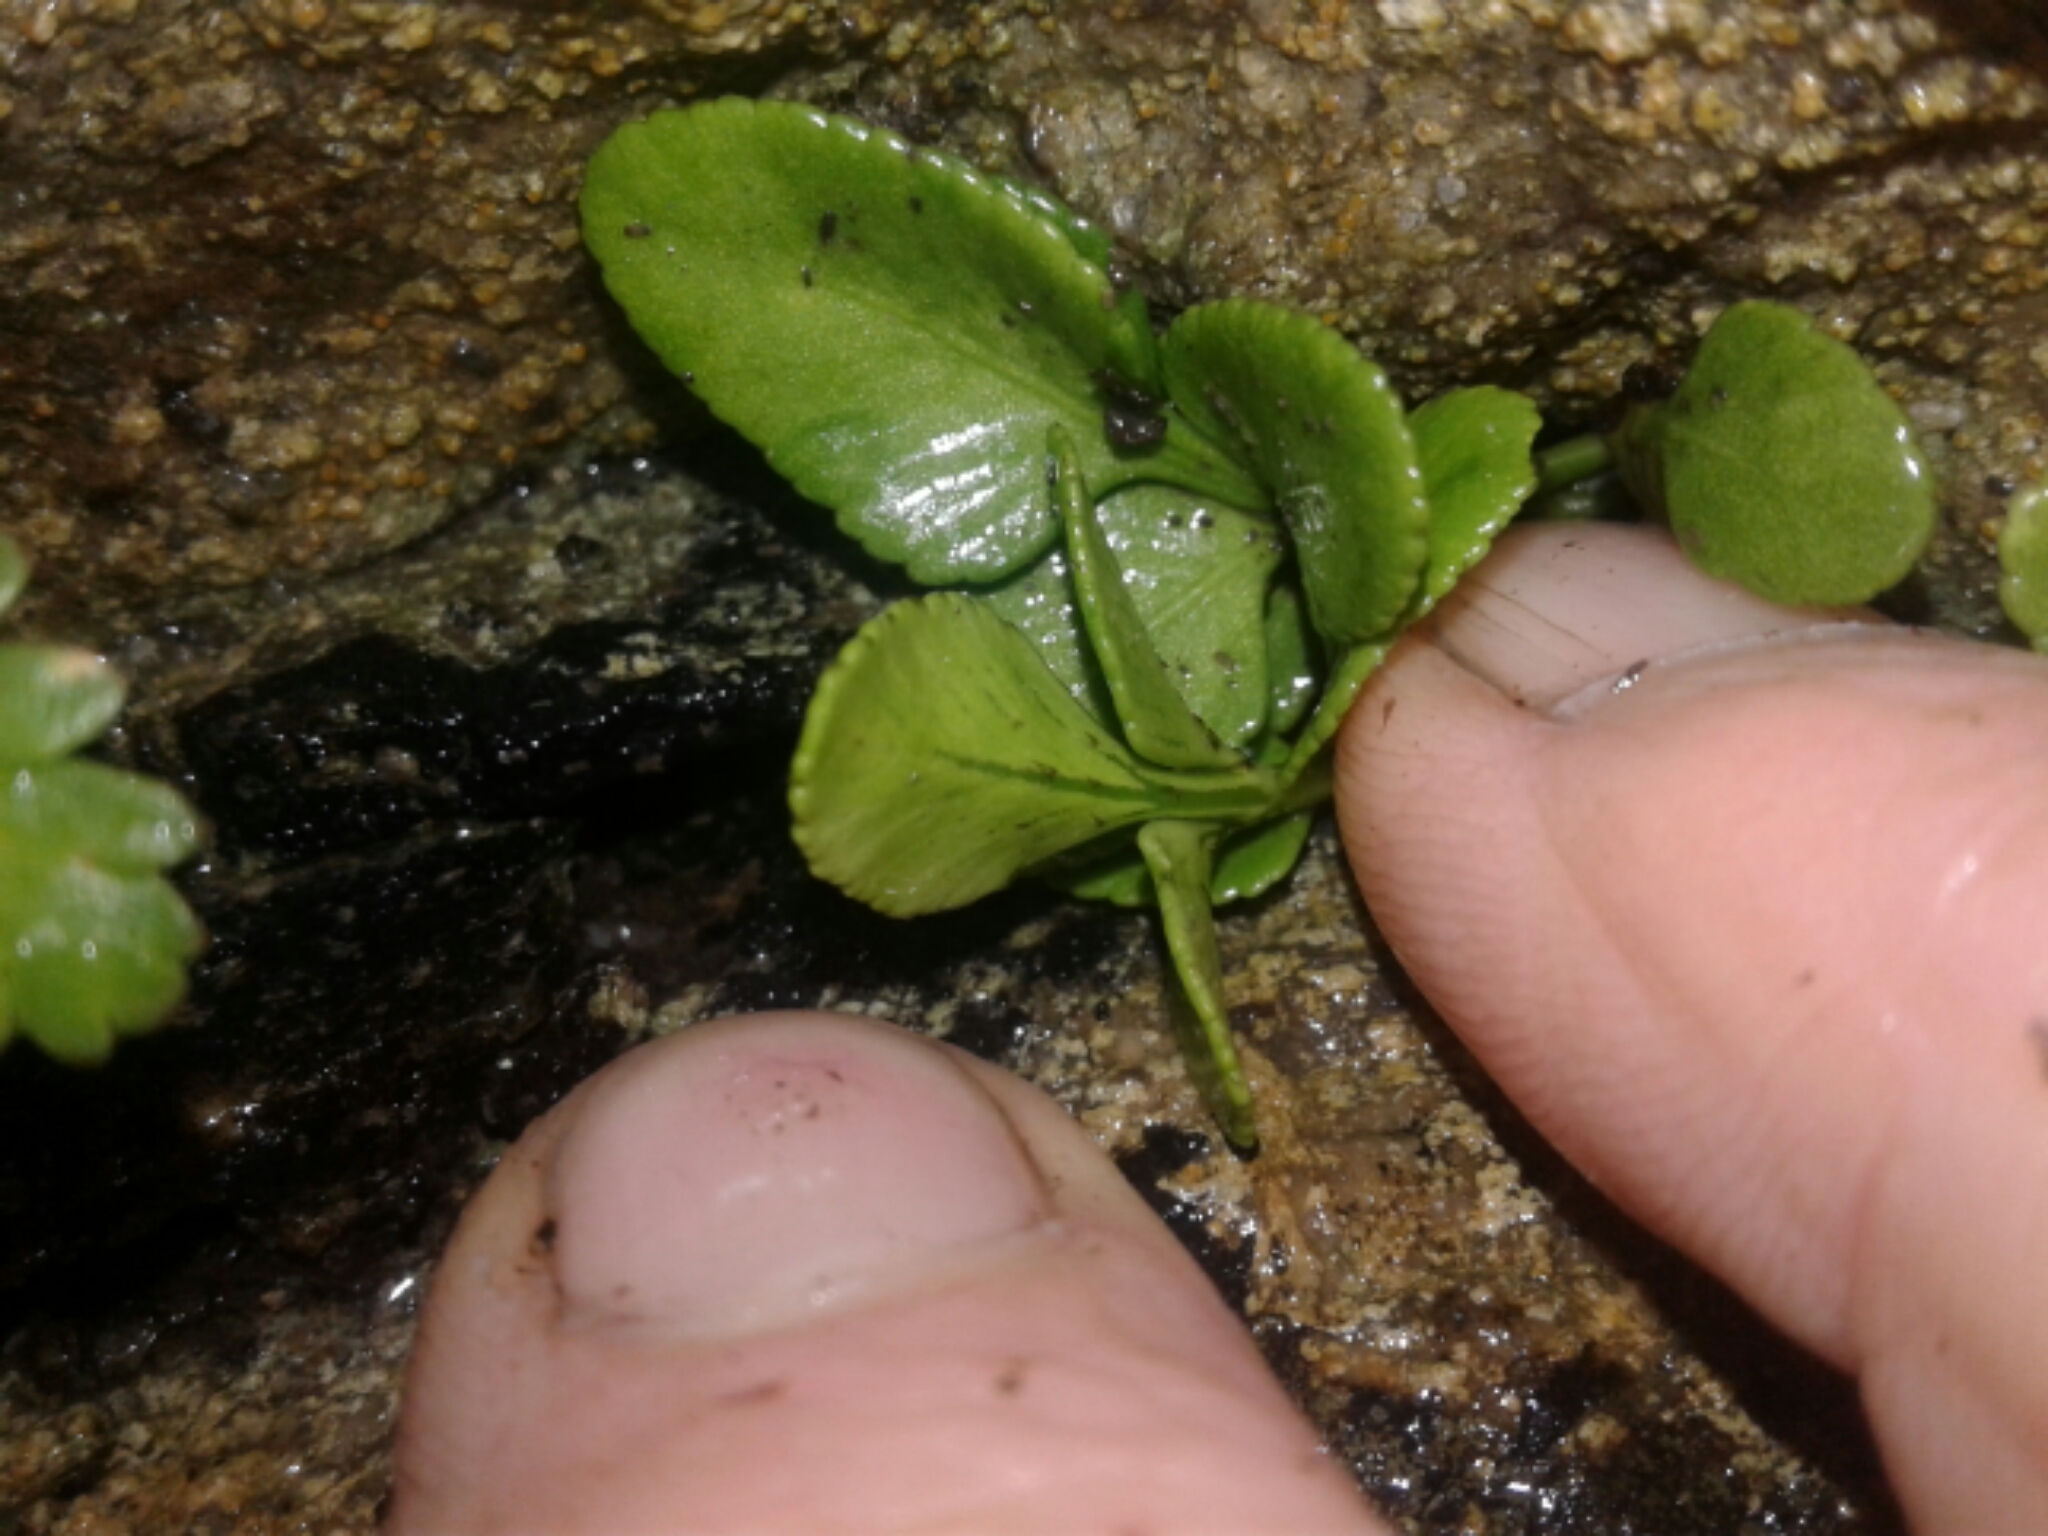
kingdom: Plantae
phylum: Tracheophyta
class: Polypodiopsida
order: Polypodiales
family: Aspleniaceae
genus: Asplenium
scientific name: Asplenium obtusatum
